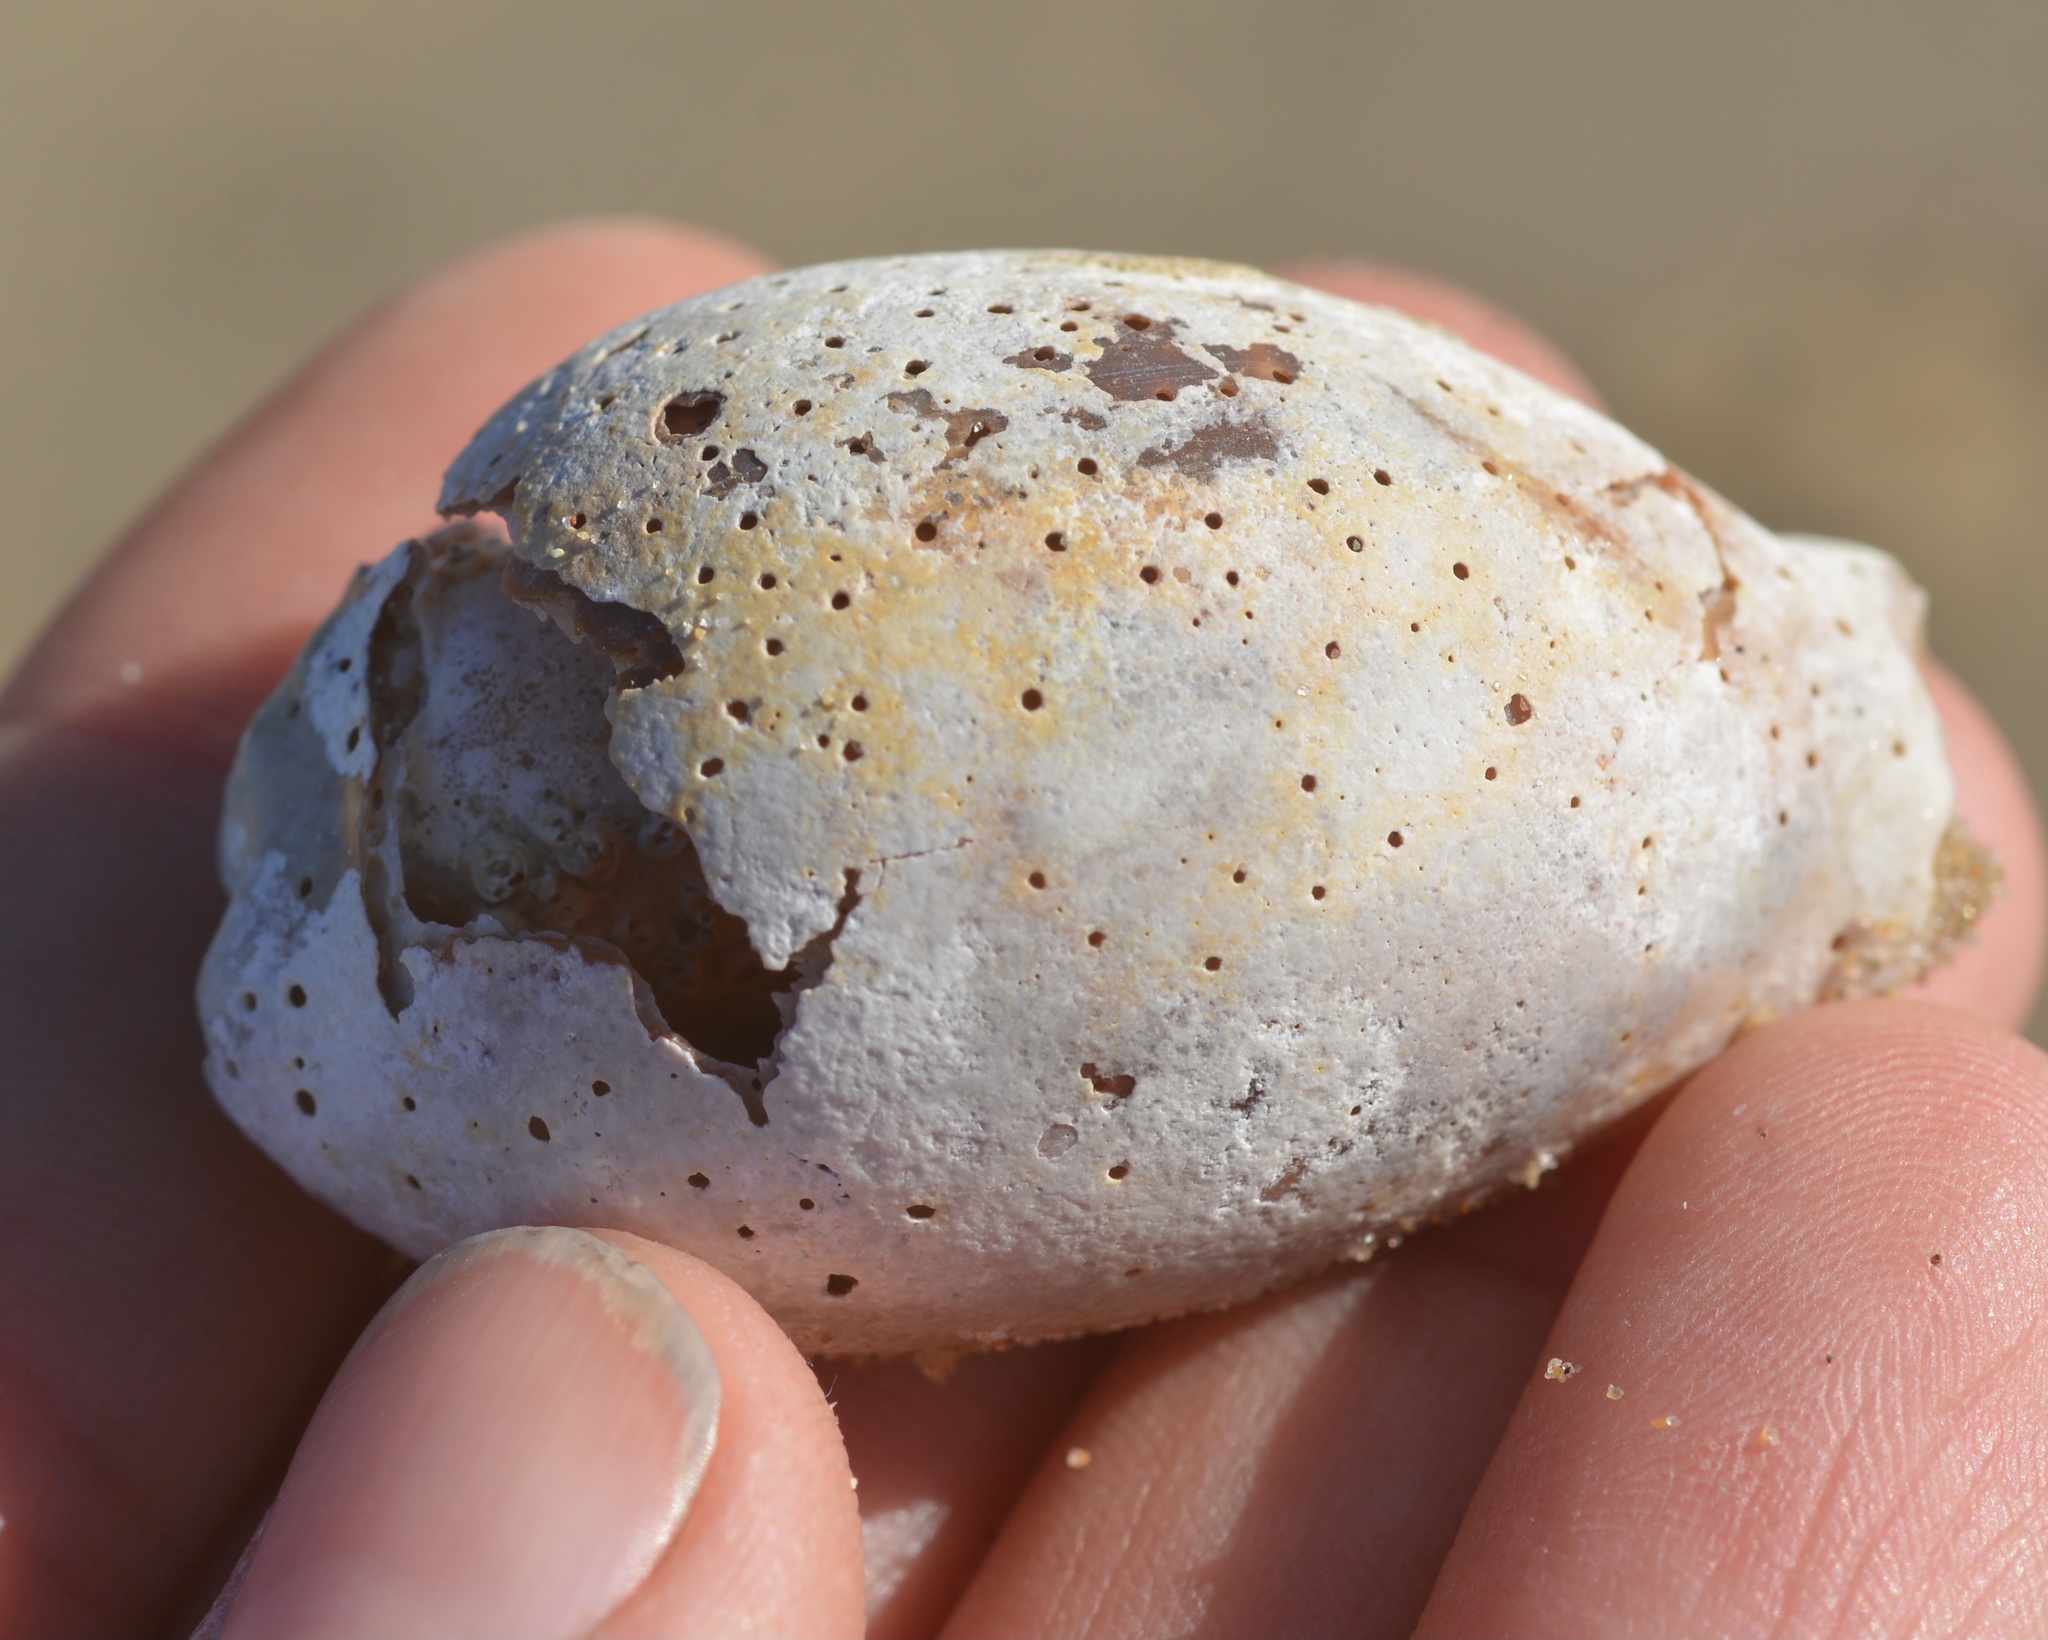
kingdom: Animalia
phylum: Mollusca
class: Gastropoda
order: Littorinimorpha
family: Cypraeidae
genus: Neobernaya
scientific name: Neobernaya spadicea
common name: Chestnut cowrie
